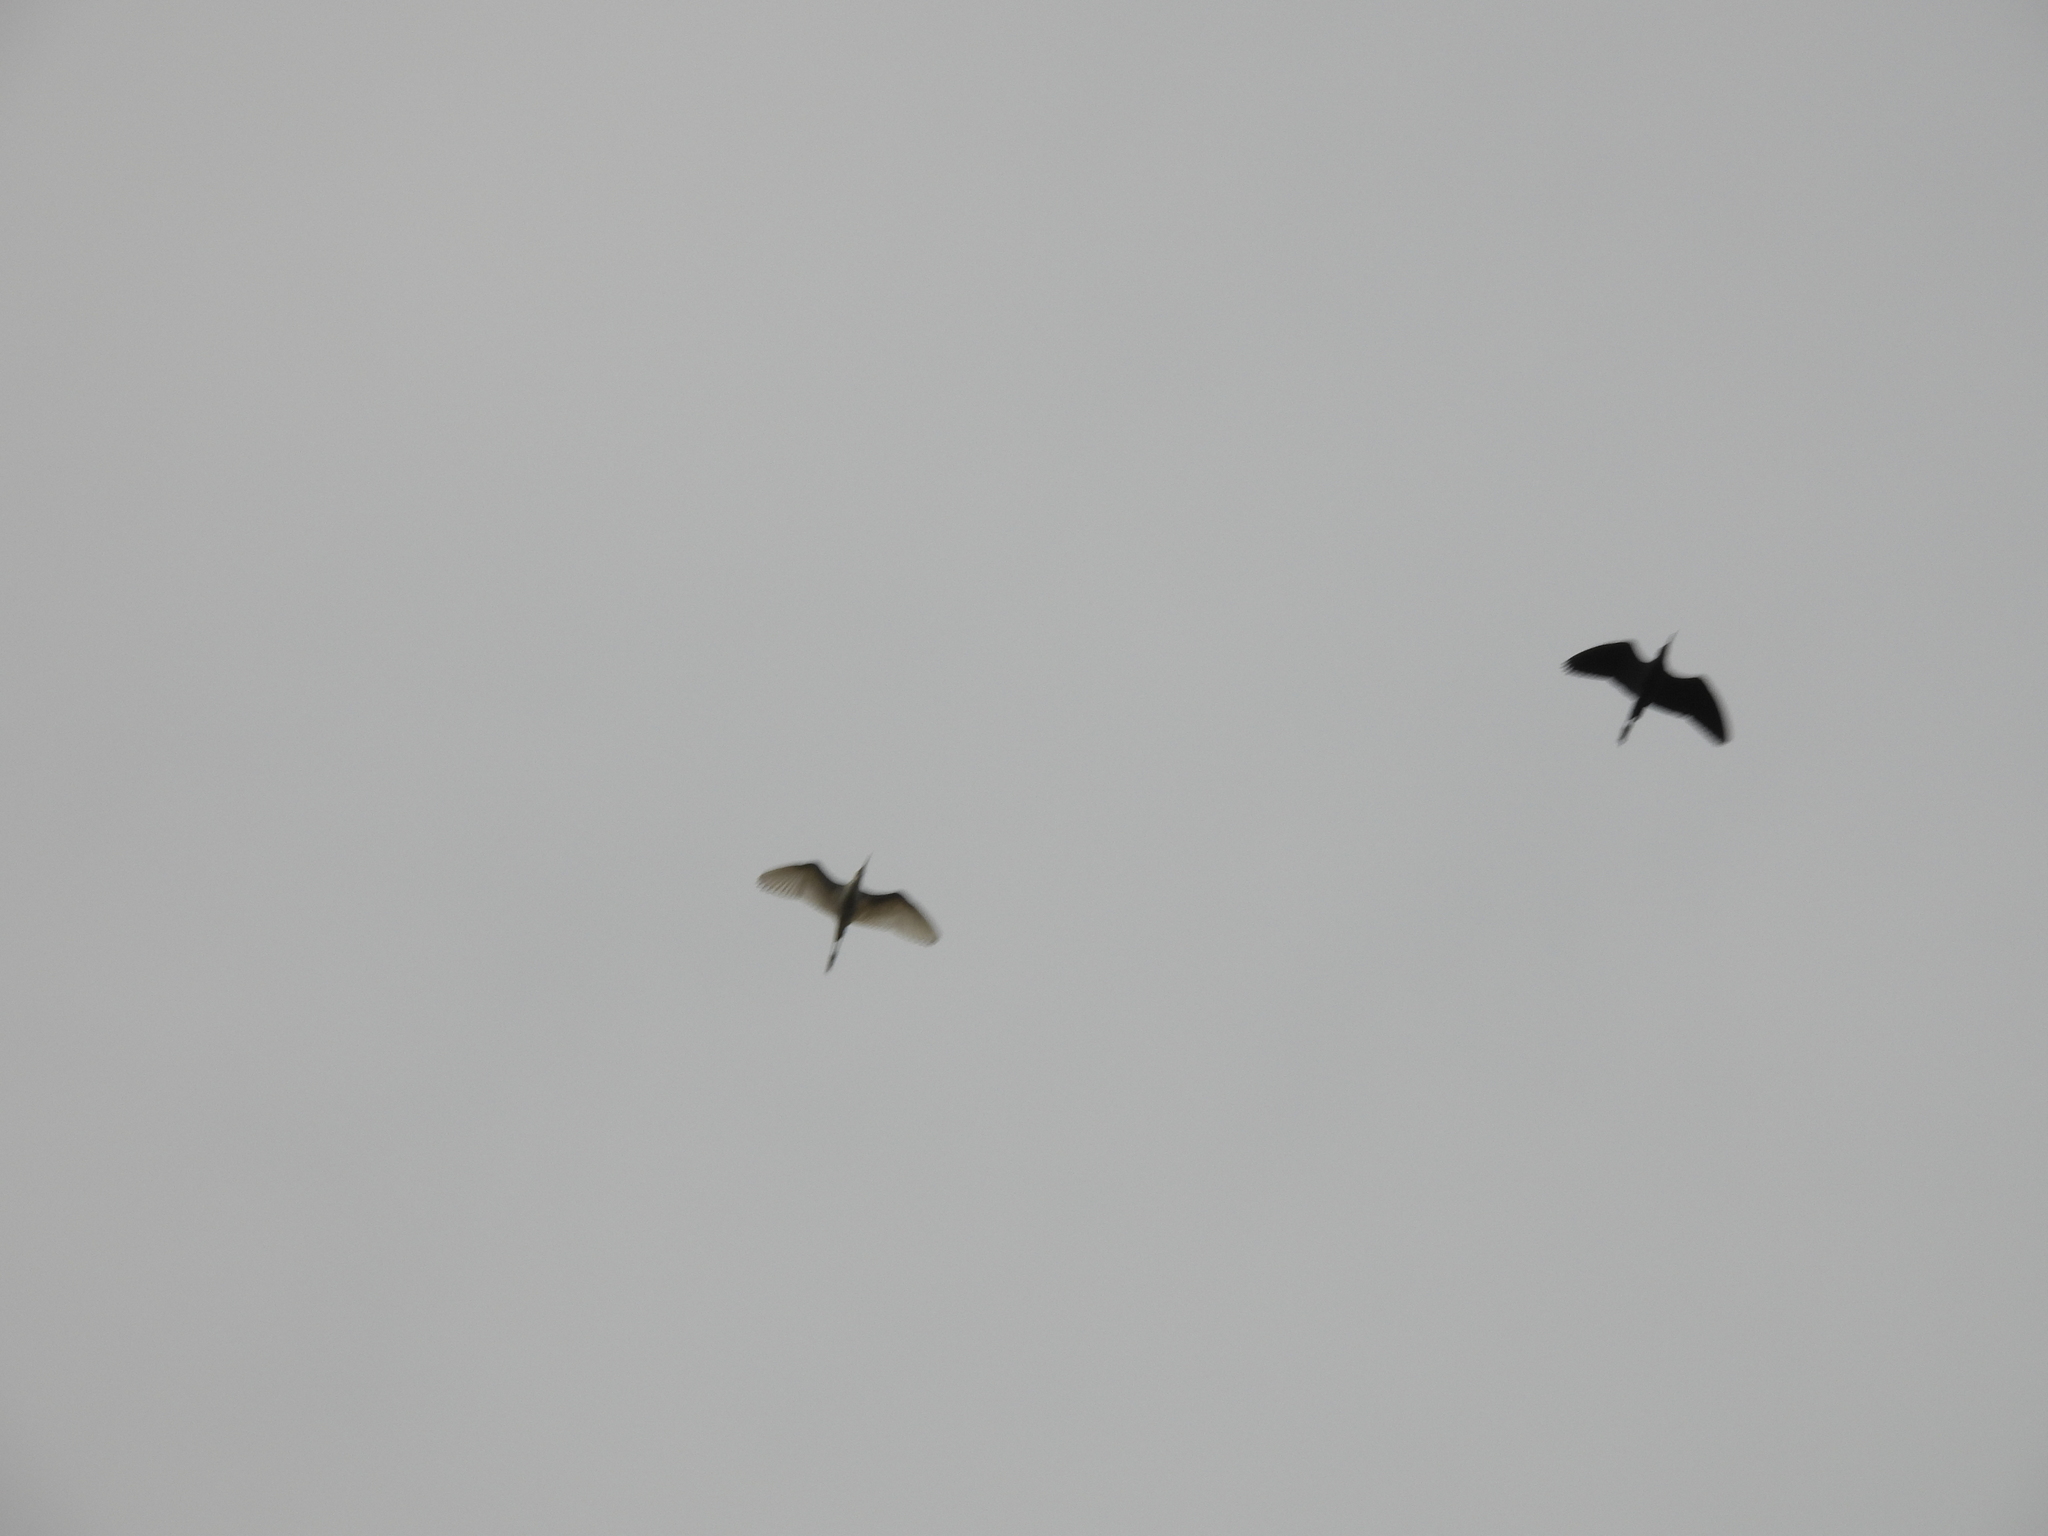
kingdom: Animalia
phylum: Chordata
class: Aves
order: Pelecaniformes
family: Ardeidae
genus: Egretta
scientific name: Egretta caerulea
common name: Little blue heron
